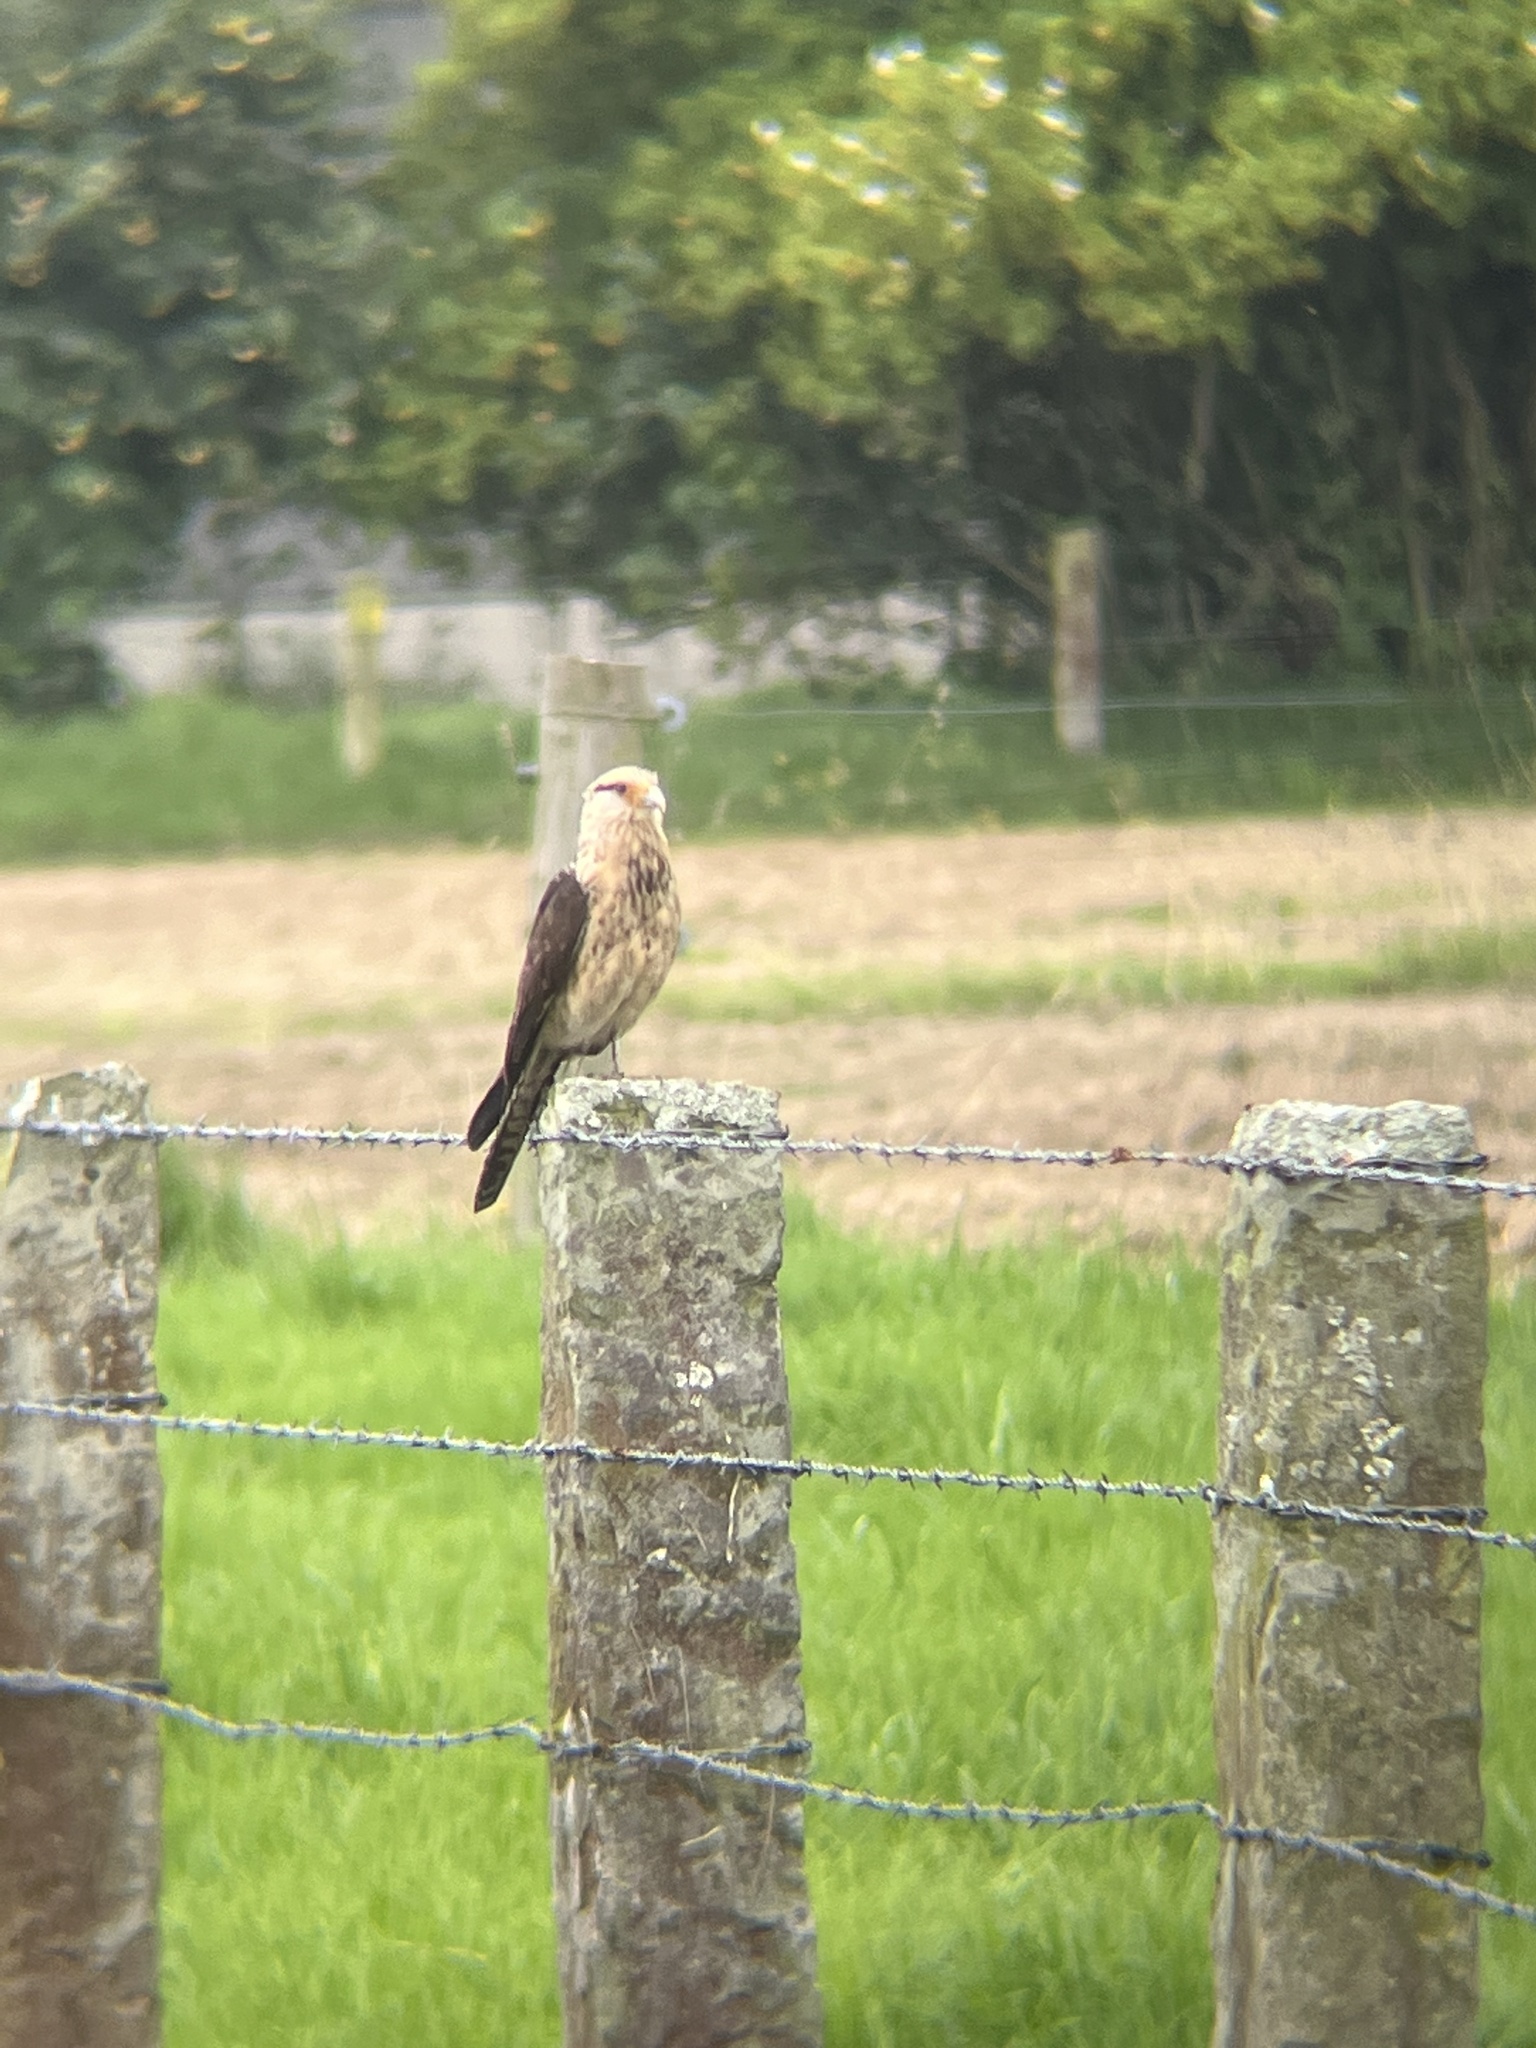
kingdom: Animalia
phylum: Chordata
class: Aves
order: Falconiformes
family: Falconidae
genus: Daptrius
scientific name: Daptrius
